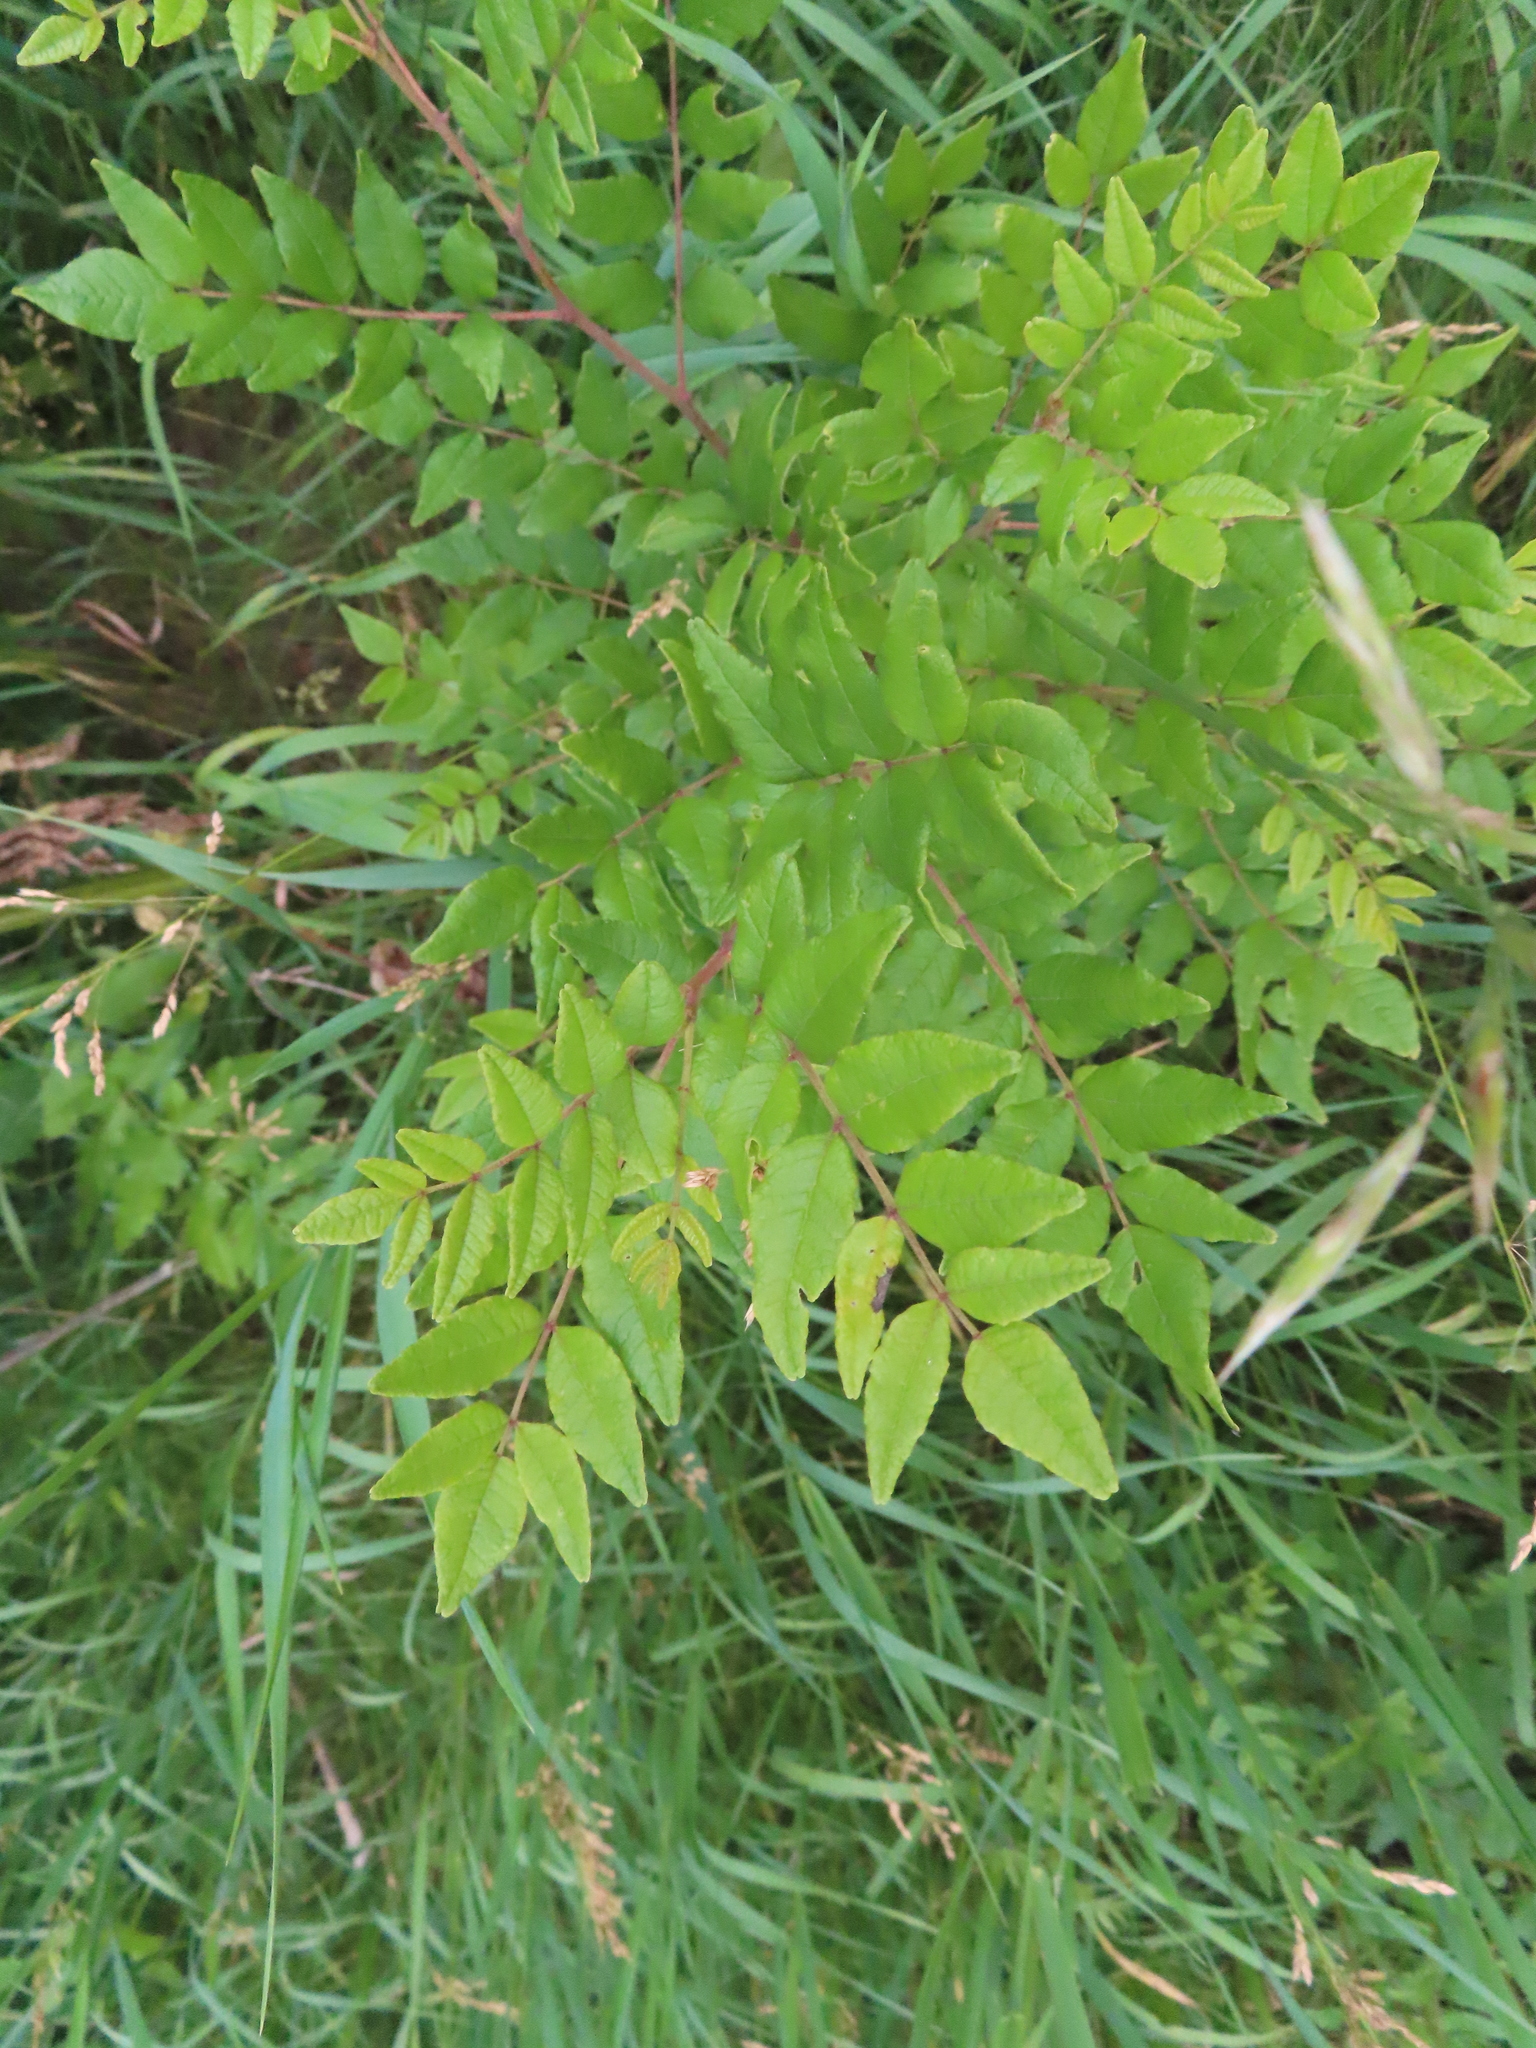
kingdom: Plantae
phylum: Tracheophyta
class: Magnoliopsida
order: Sapindales
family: Rutaceae
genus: Zanthoxylum
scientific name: Zanthoxylum americanum
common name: Northern prickly-ash
